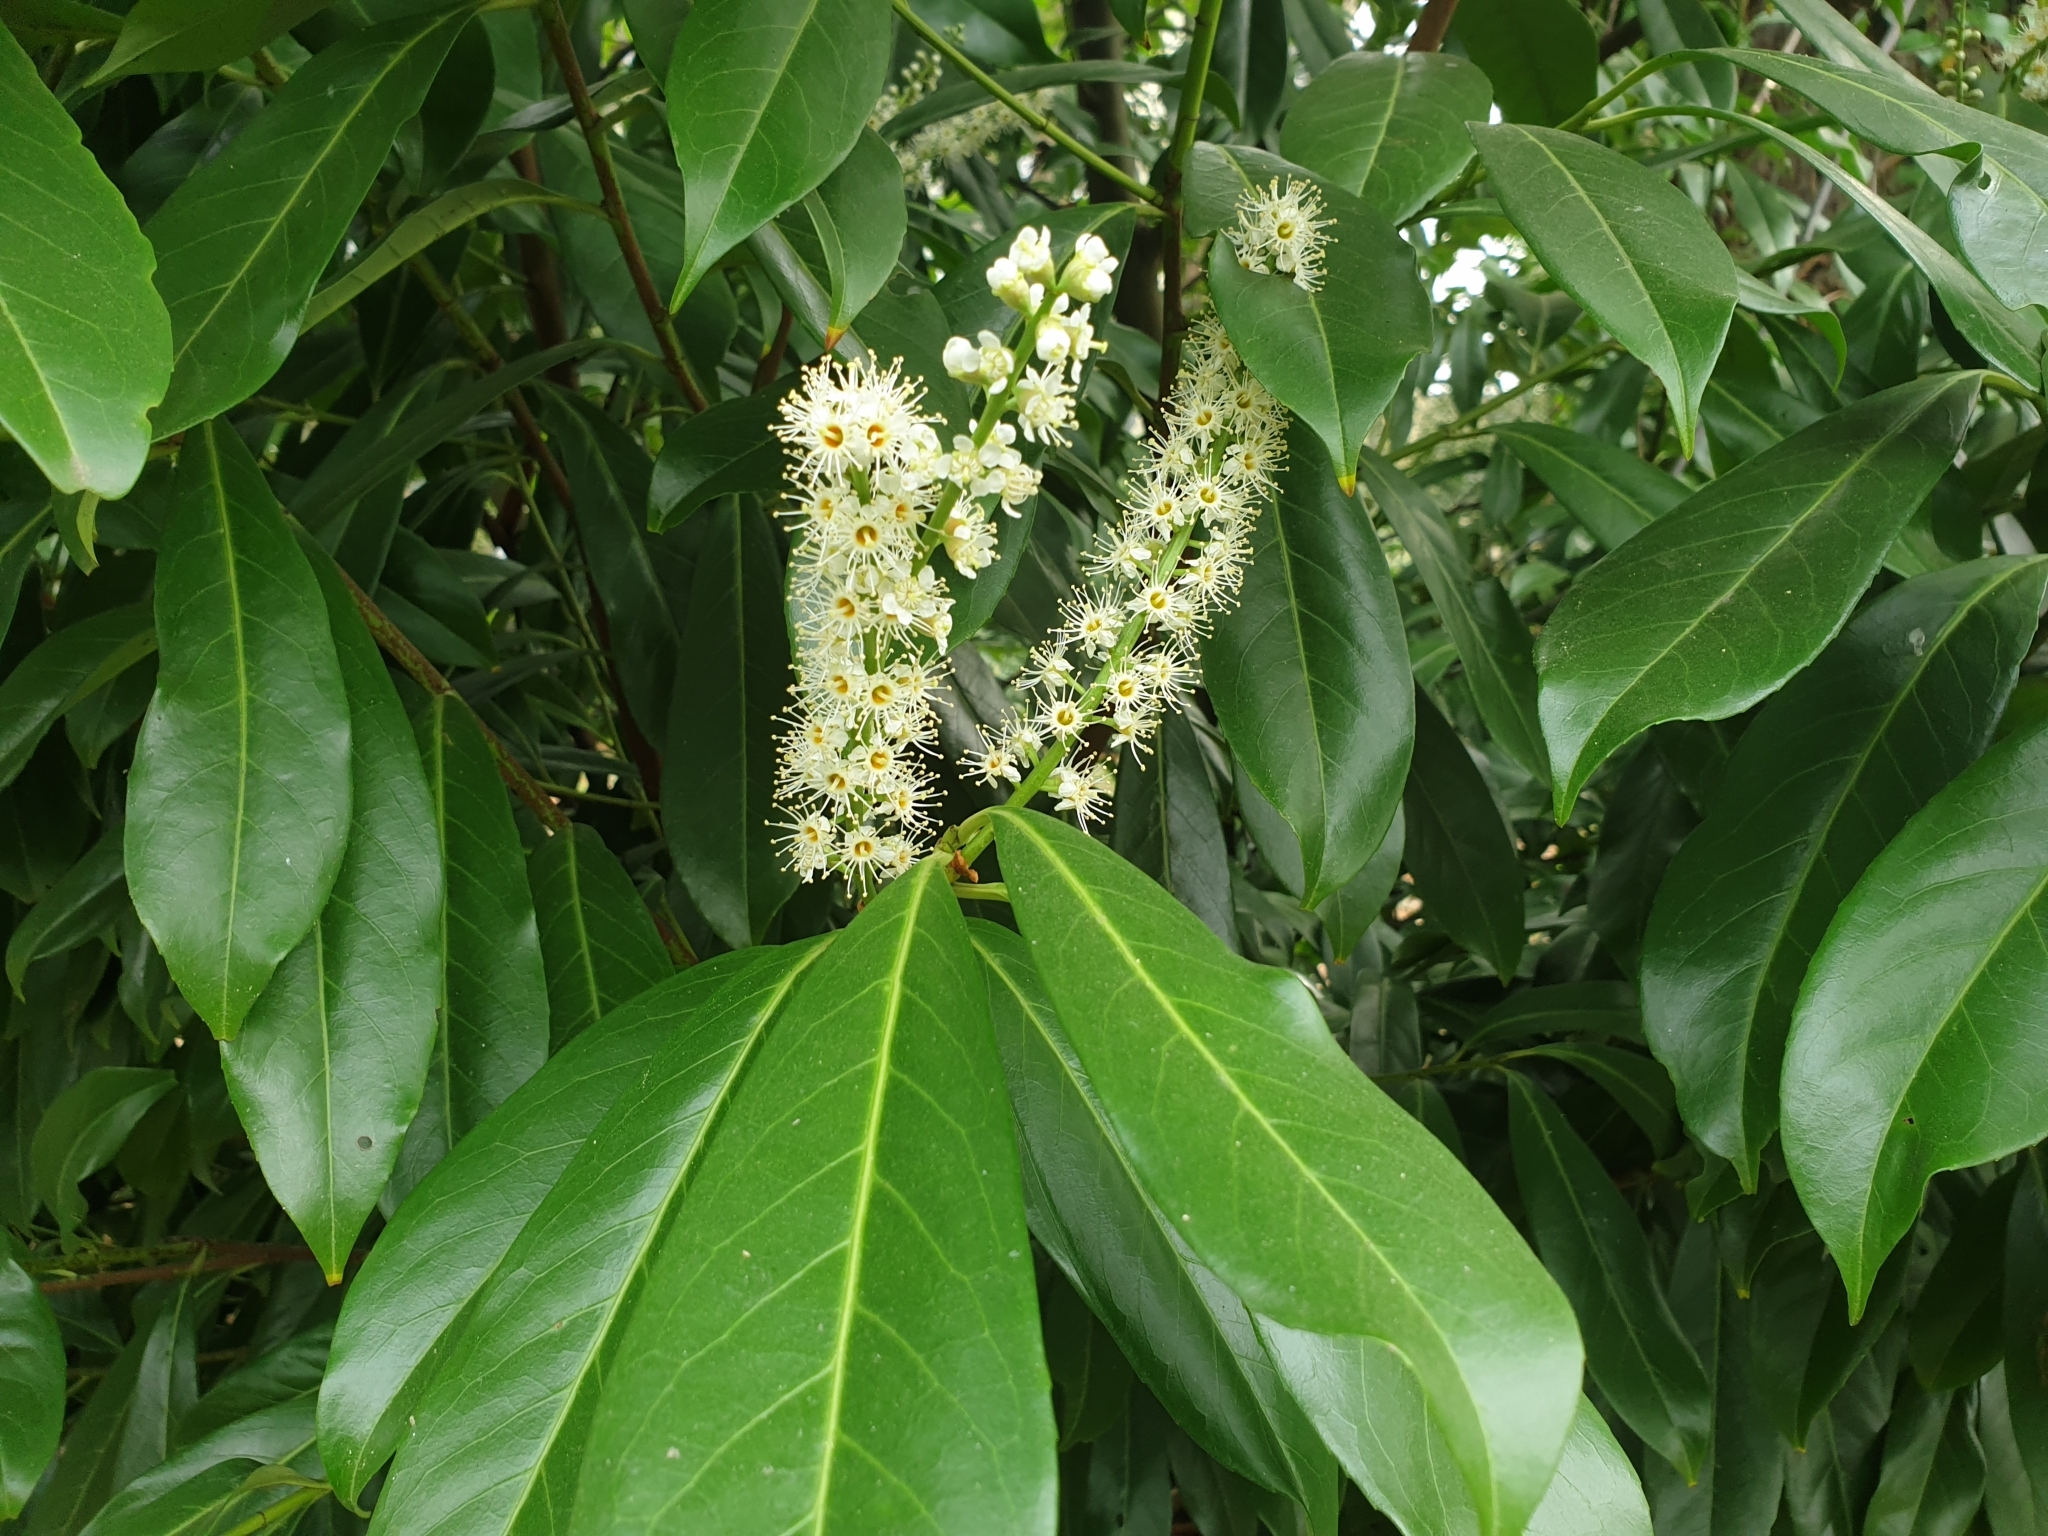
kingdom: Plantae
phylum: Tracheophyta
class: Magnoliopsida
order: Rosales
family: Rosaceae
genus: Prunus
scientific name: Prunus laurocerasus
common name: Cherry laurel
